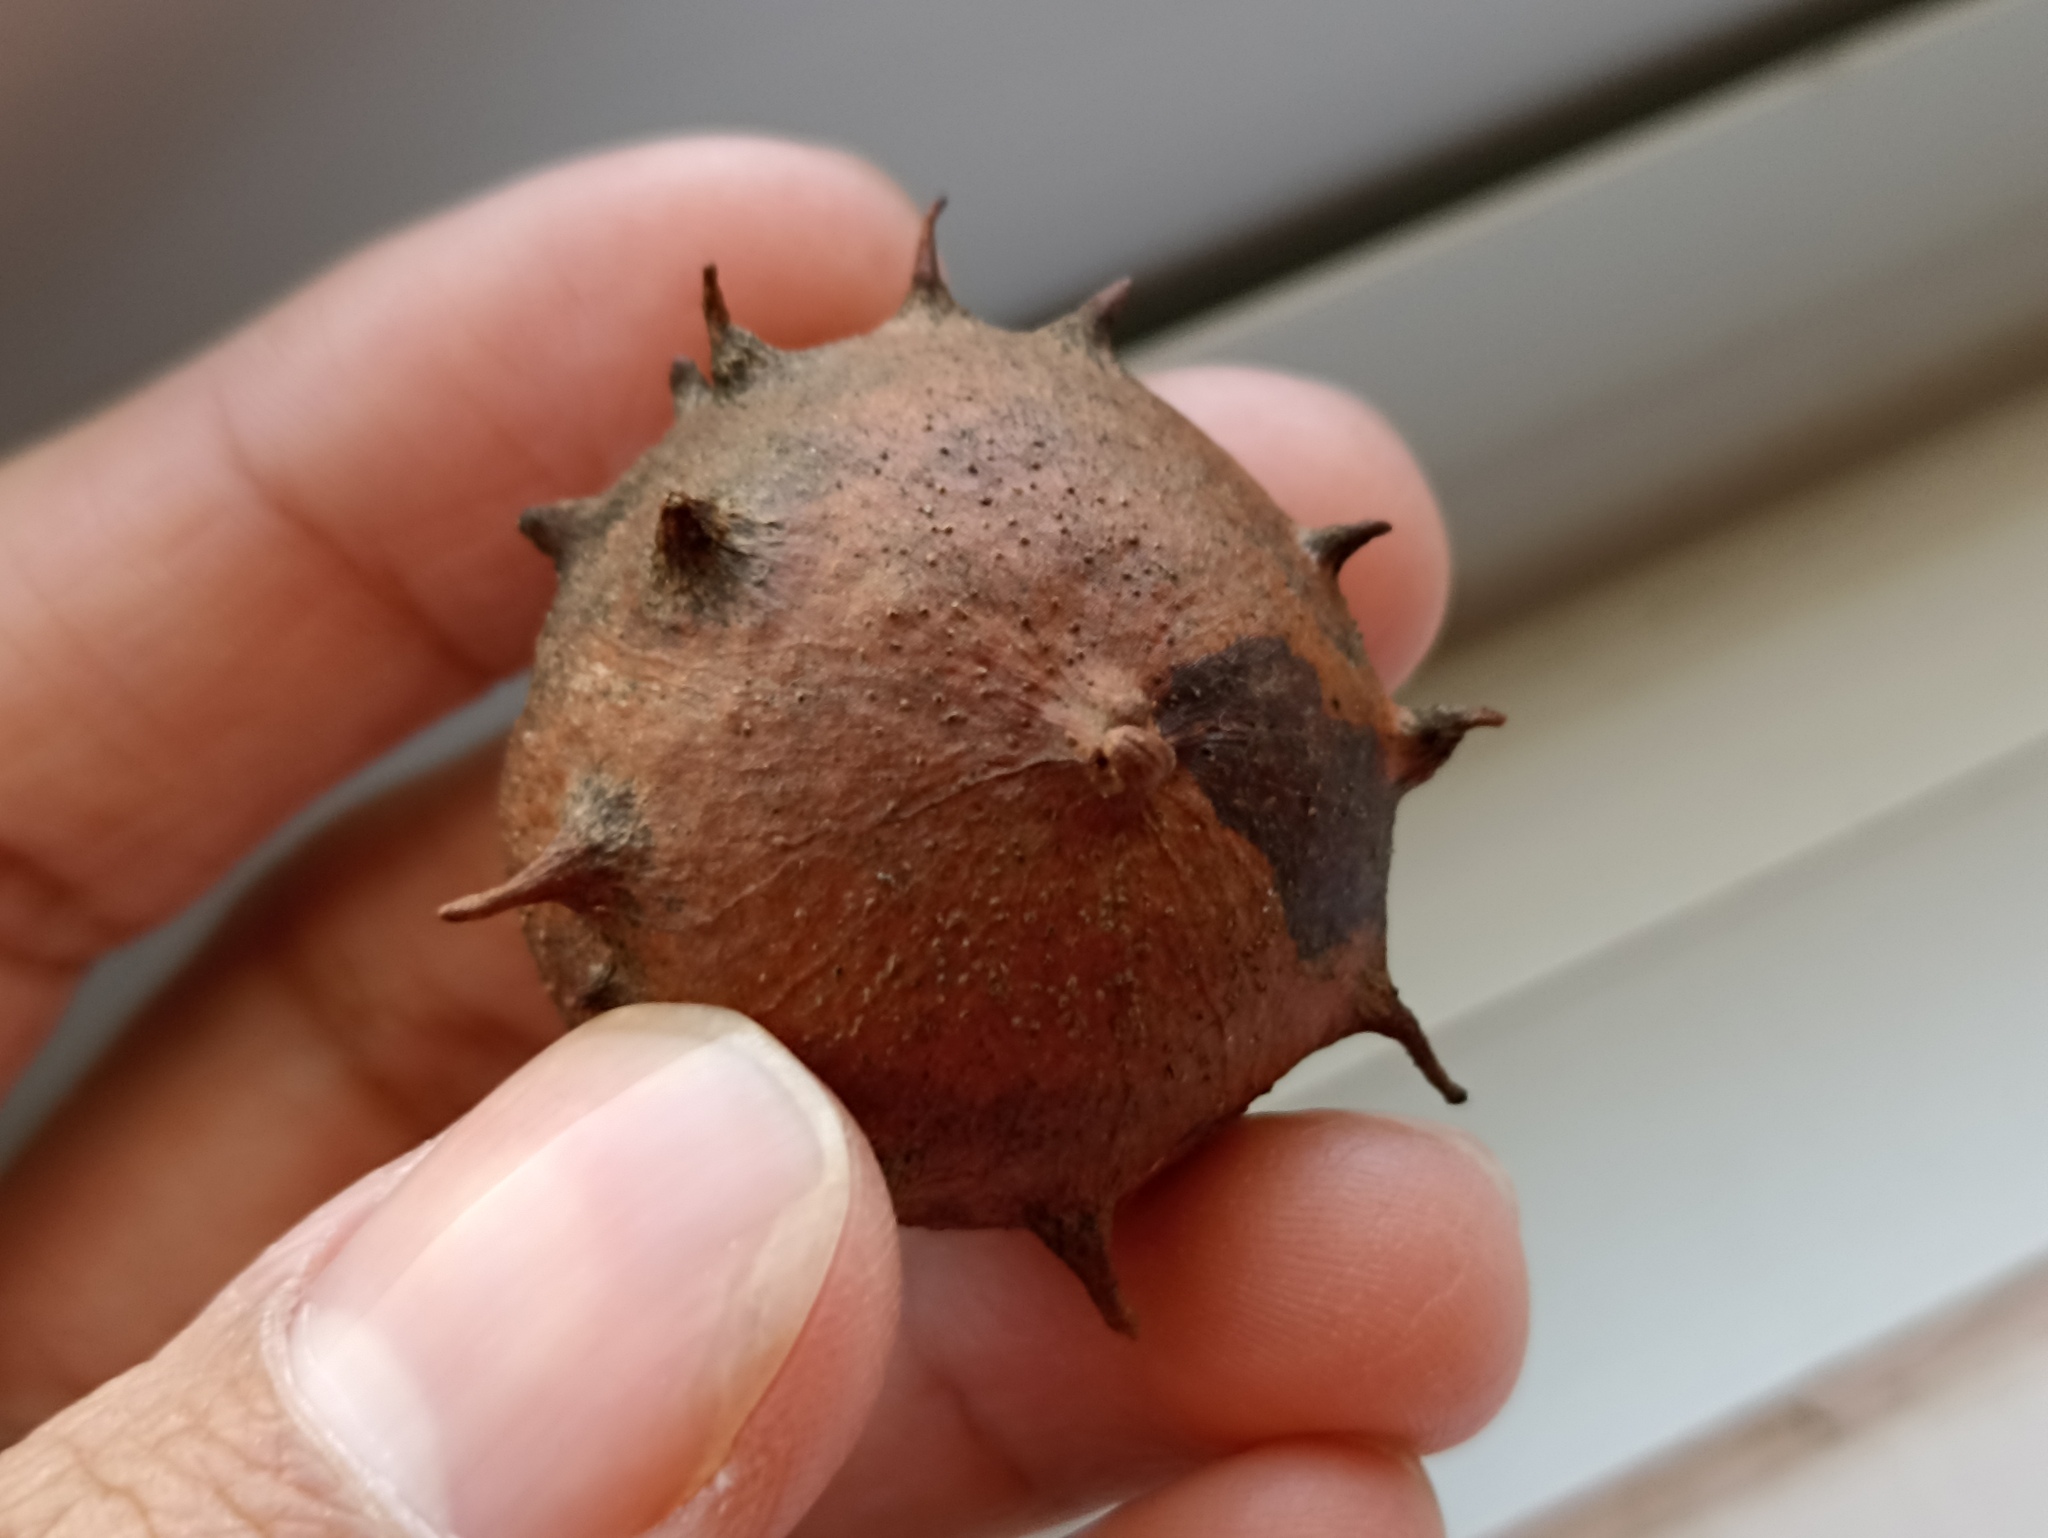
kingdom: Animalia
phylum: Arthropoda
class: Insecta
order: Hymenoptera
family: Cynipidae
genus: Andricus
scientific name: Andricus quercustozae
